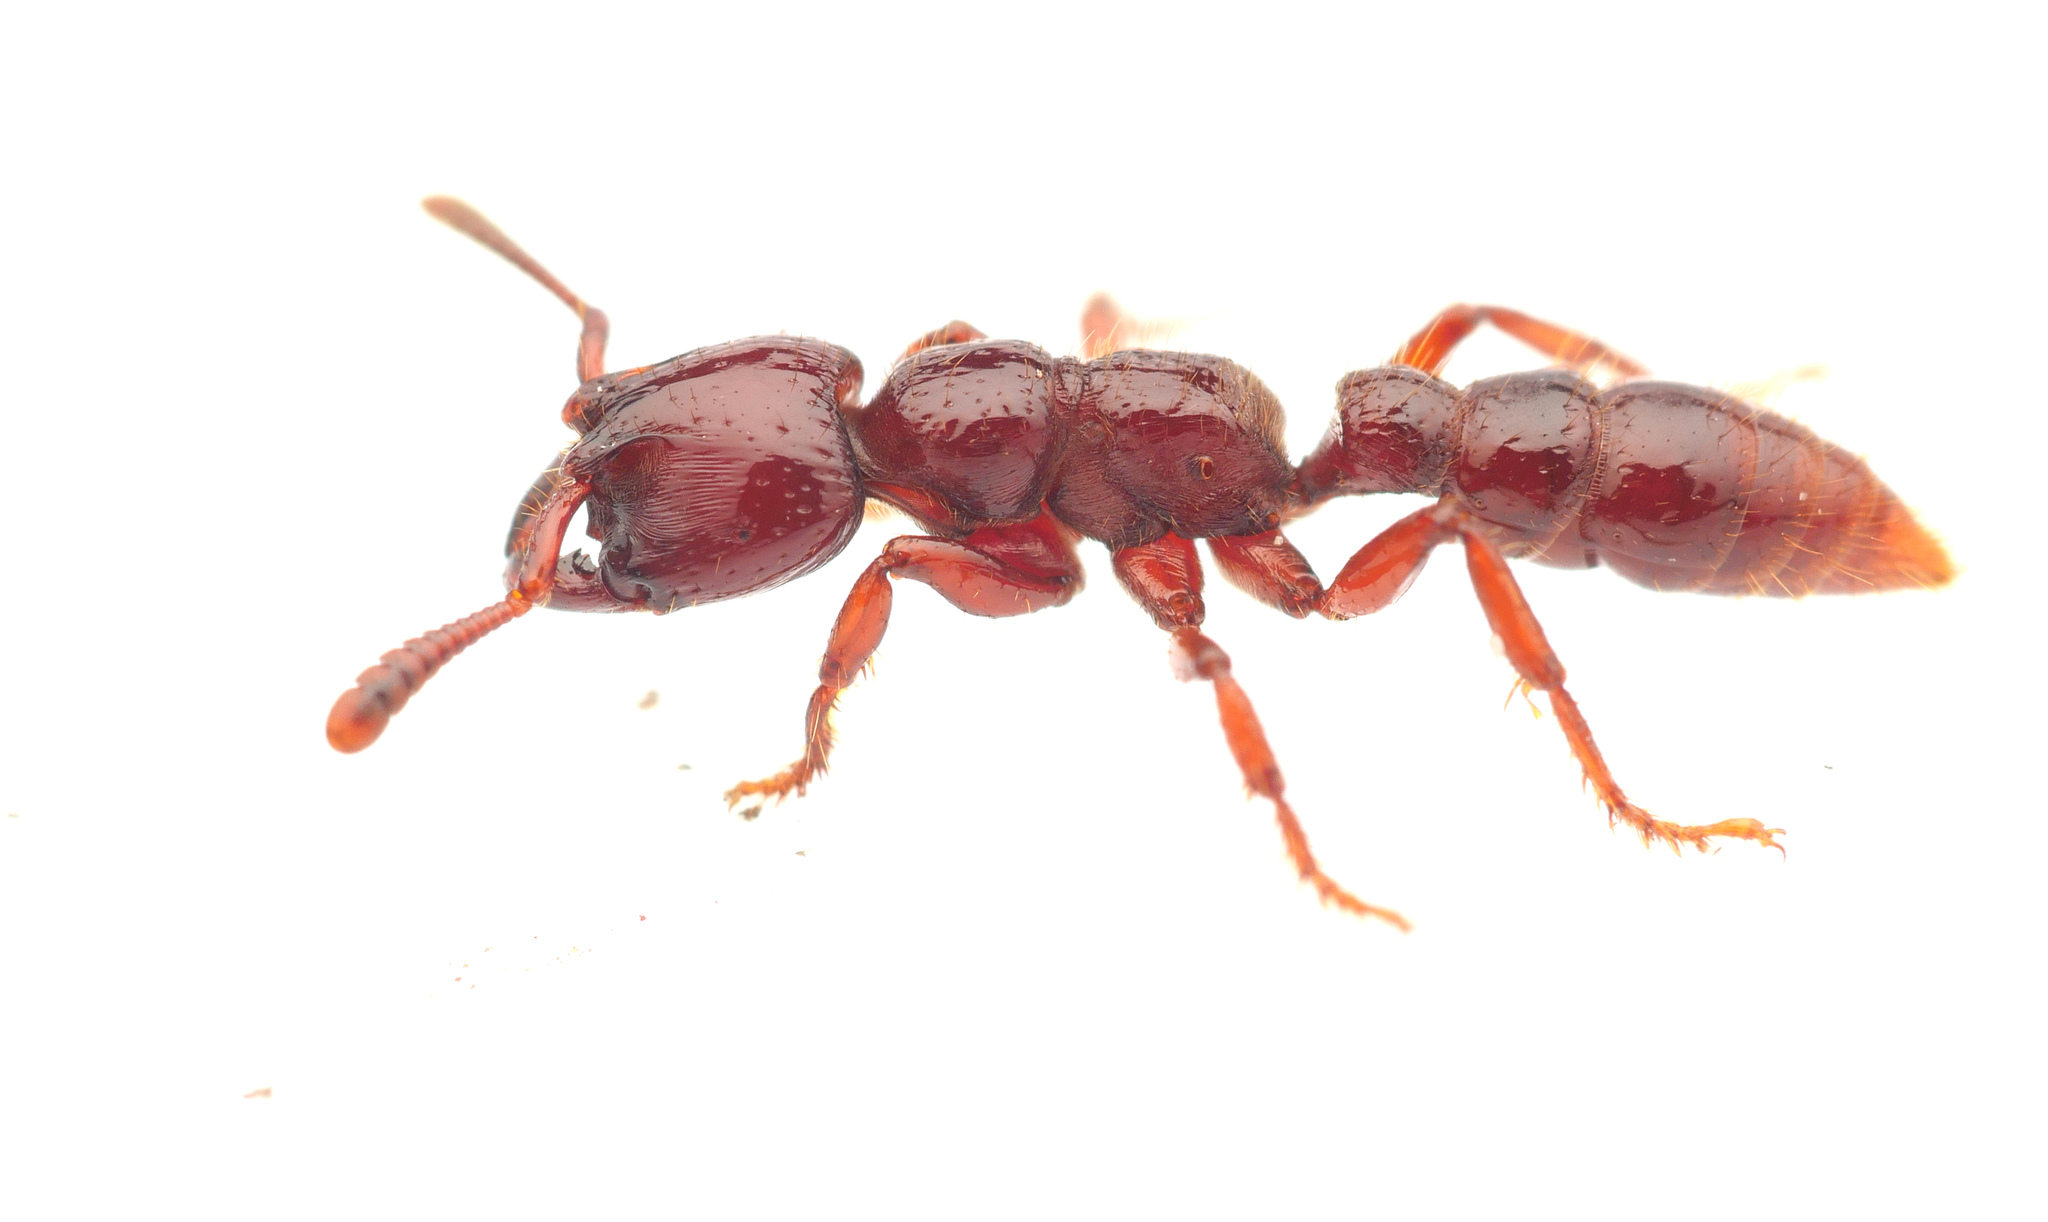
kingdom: Animalia
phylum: Arthropoda
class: Insecta
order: Hymenoptera
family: Formicidae
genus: Myopopone
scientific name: Myopopone castanea
